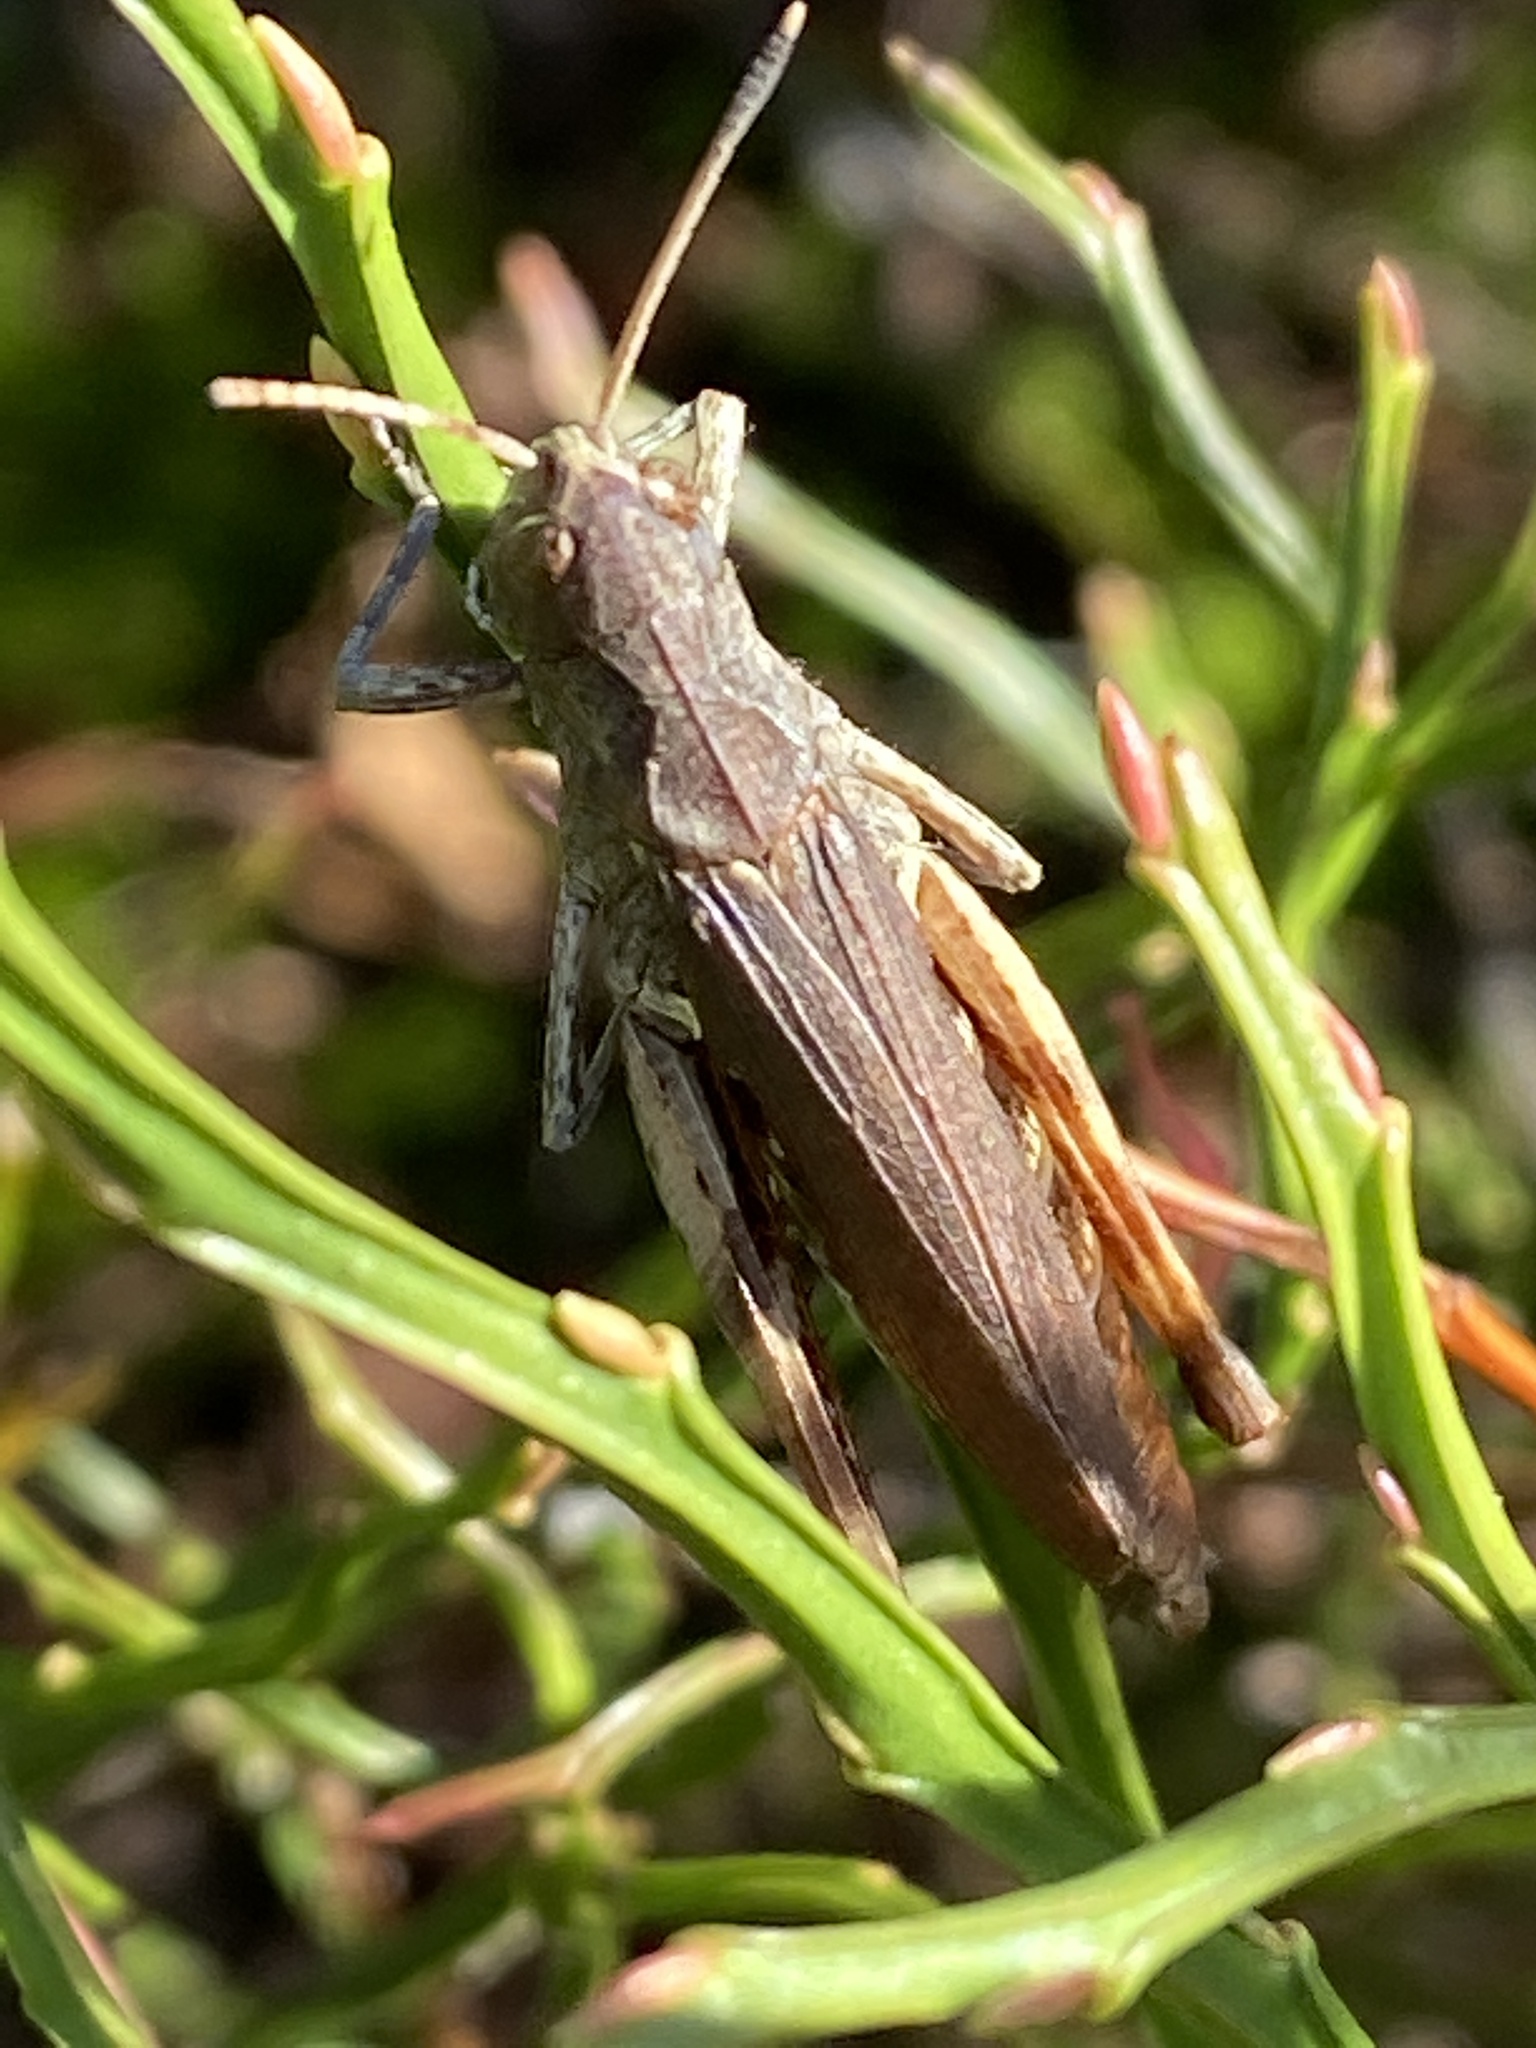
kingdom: Animalia
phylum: Arthropoda
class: Insecta
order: Orthoptera
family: Acrididae
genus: Gomphocerippus
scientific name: Gomphocerippus rufus
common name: Rufous grasshopper
